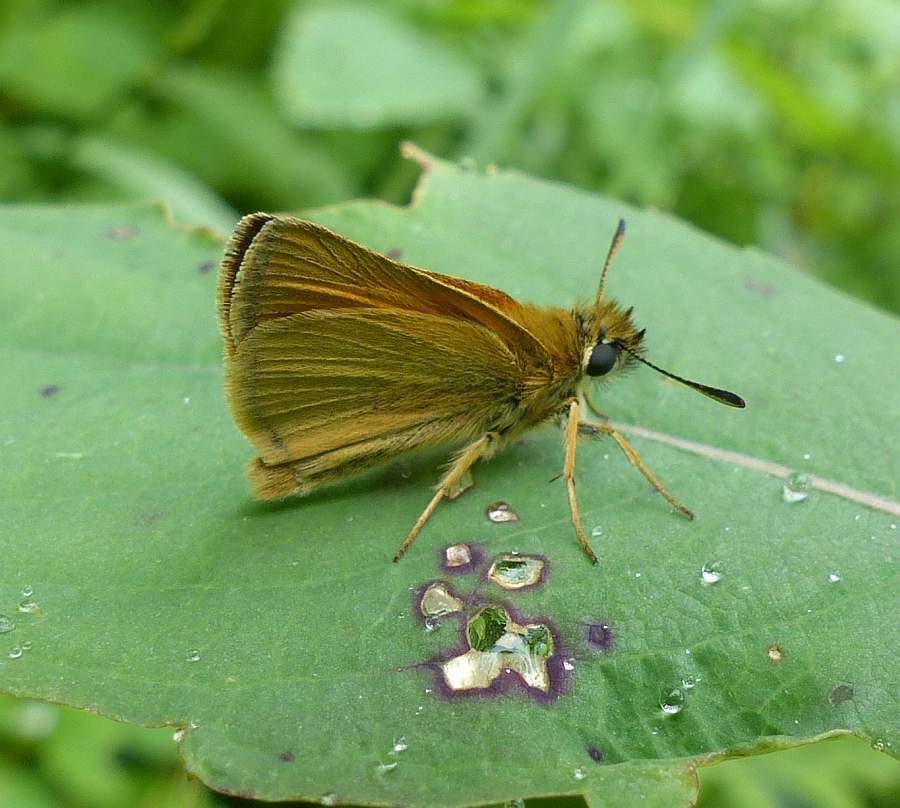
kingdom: Animalia
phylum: Arthropoda
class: Insecta
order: Lepidoptera
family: Hesperiidae
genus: Thymelicus
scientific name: Thymelicus lineola
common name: Essex skipper
